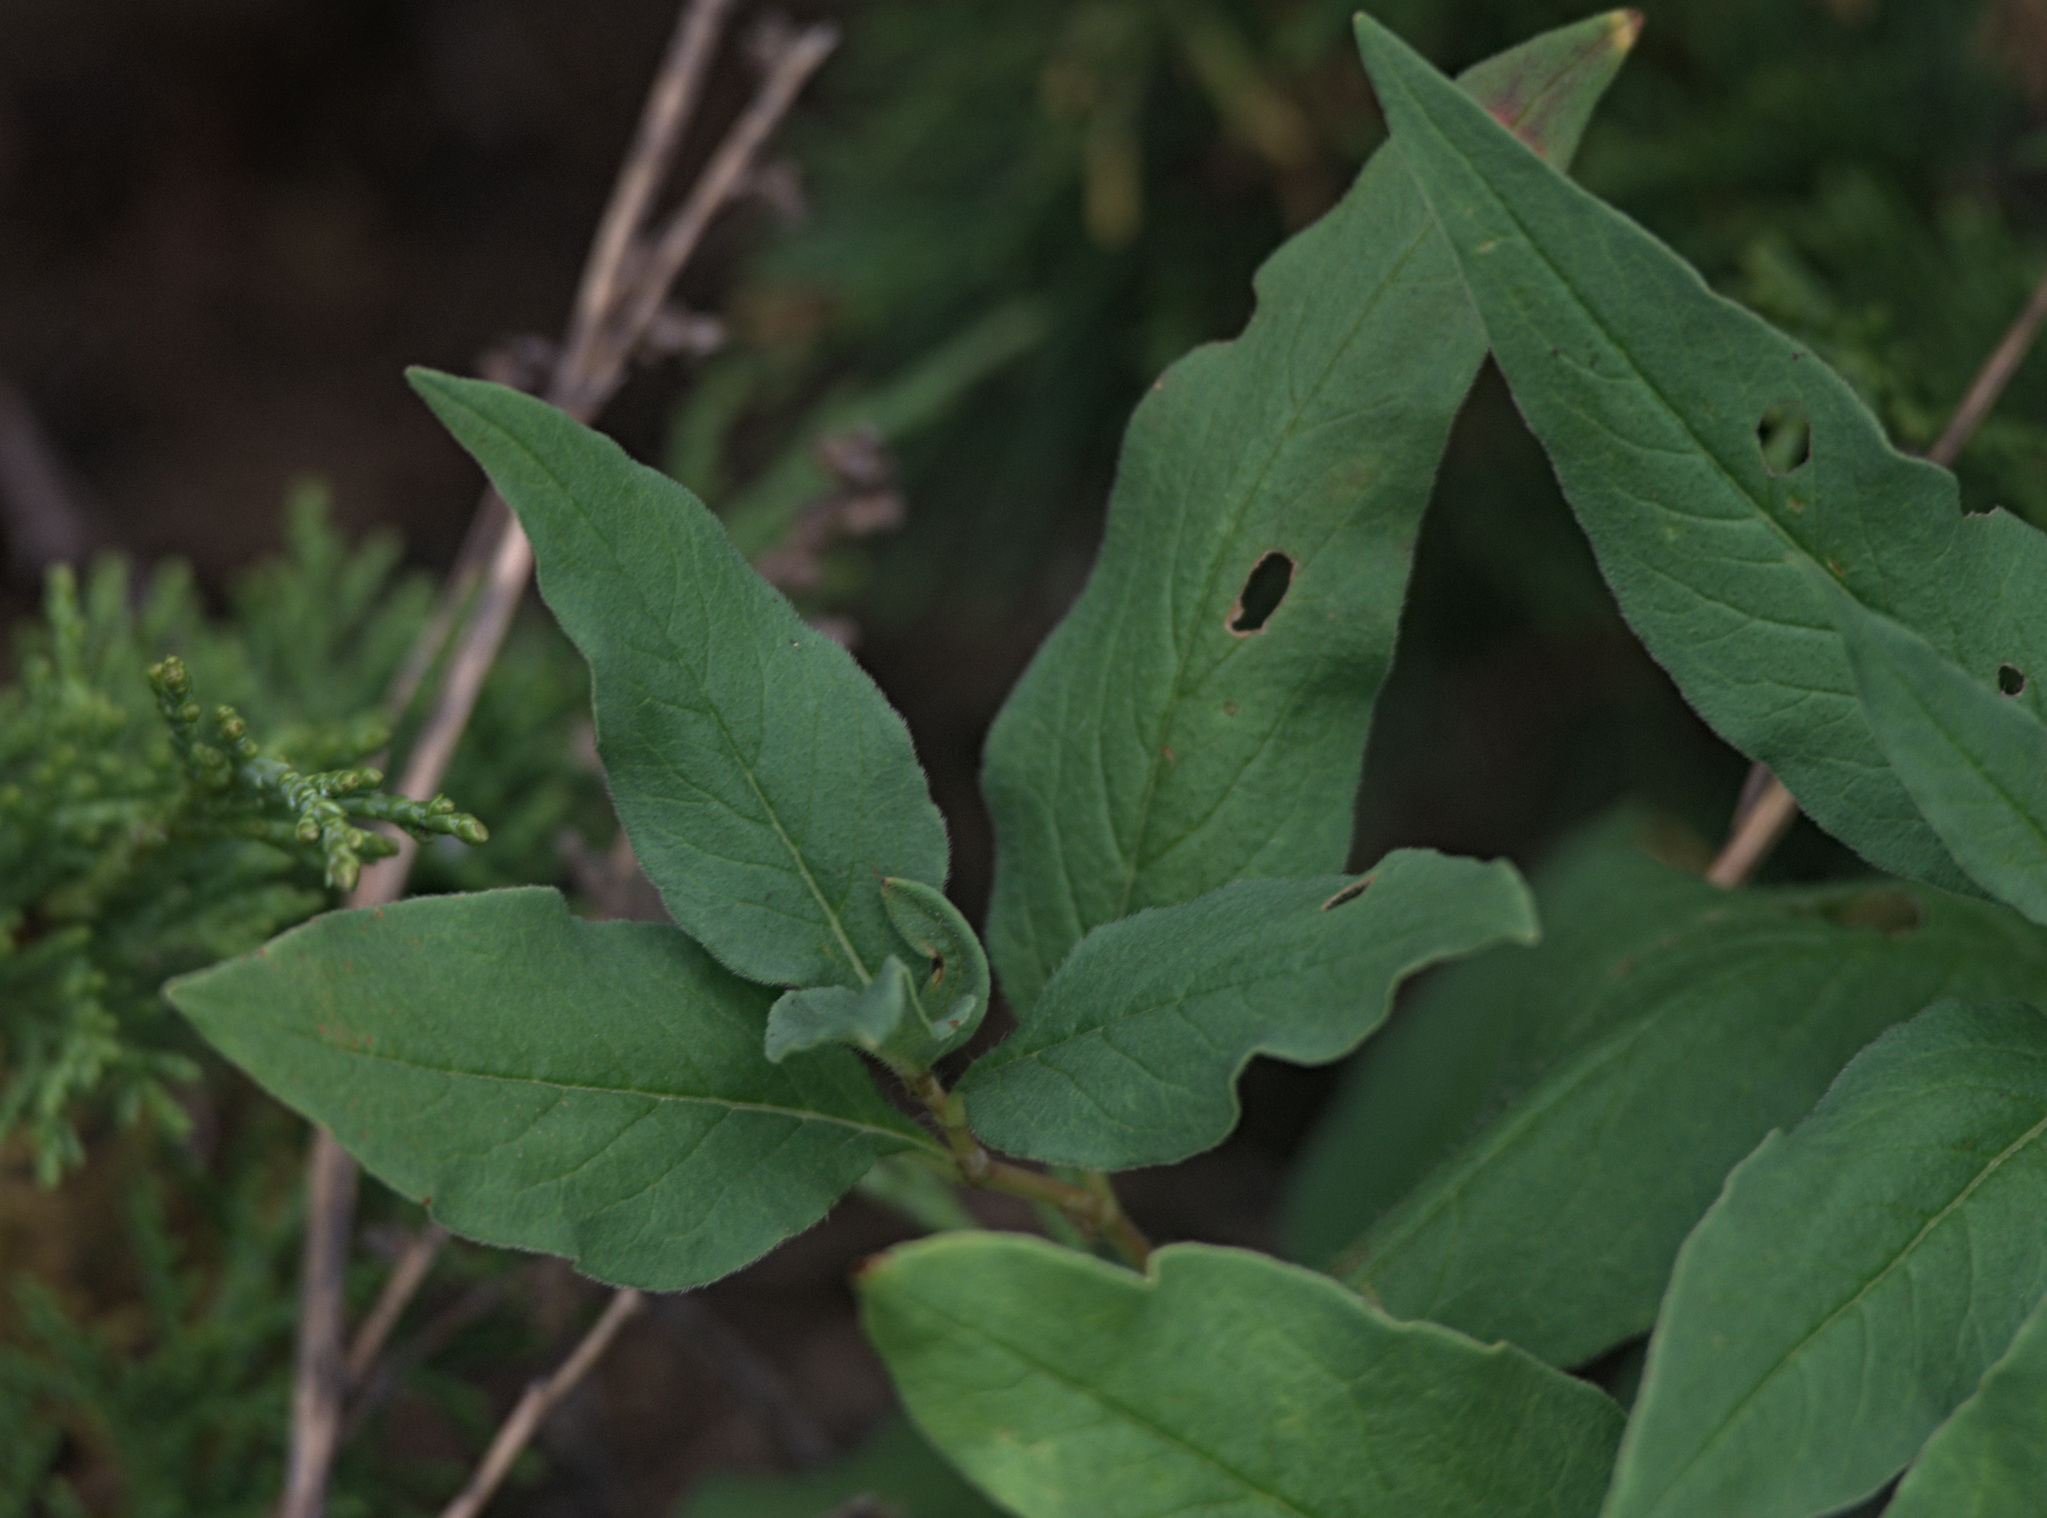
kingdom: Plantae
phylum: Tracheophyta
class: Magnoliopsida
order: Caryophyllales
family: Polygonaceae
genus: Koenigia
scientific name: Koenigia alpina
